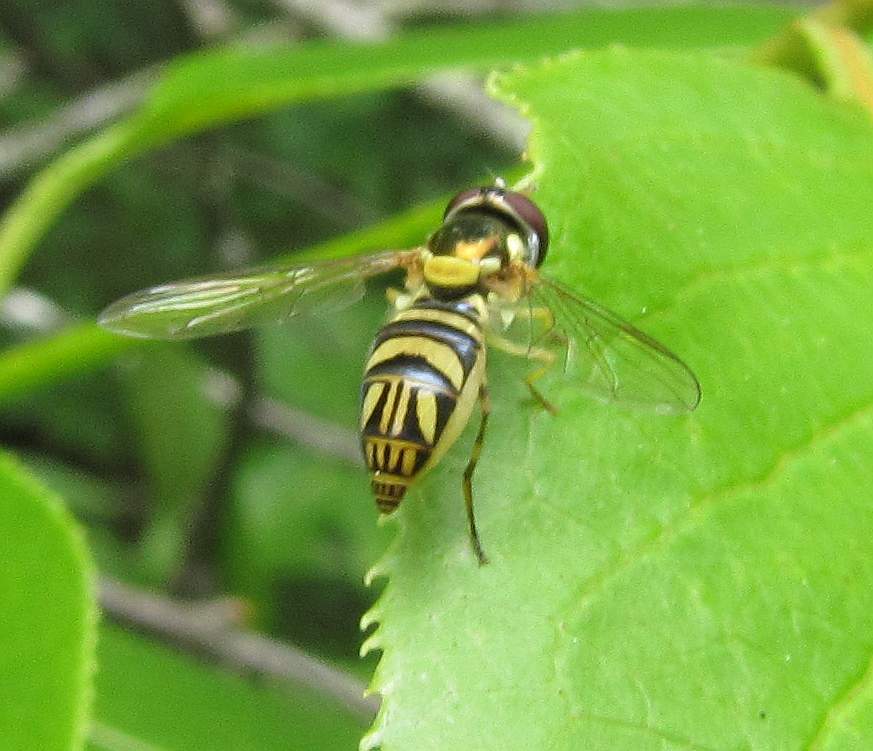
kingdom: Animalia
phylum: Arthropoda
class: Insecta
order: Diptera
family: Syrphidae
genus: Allograpta
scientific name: Allograpta obliqua
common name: Common oblique syrphid
